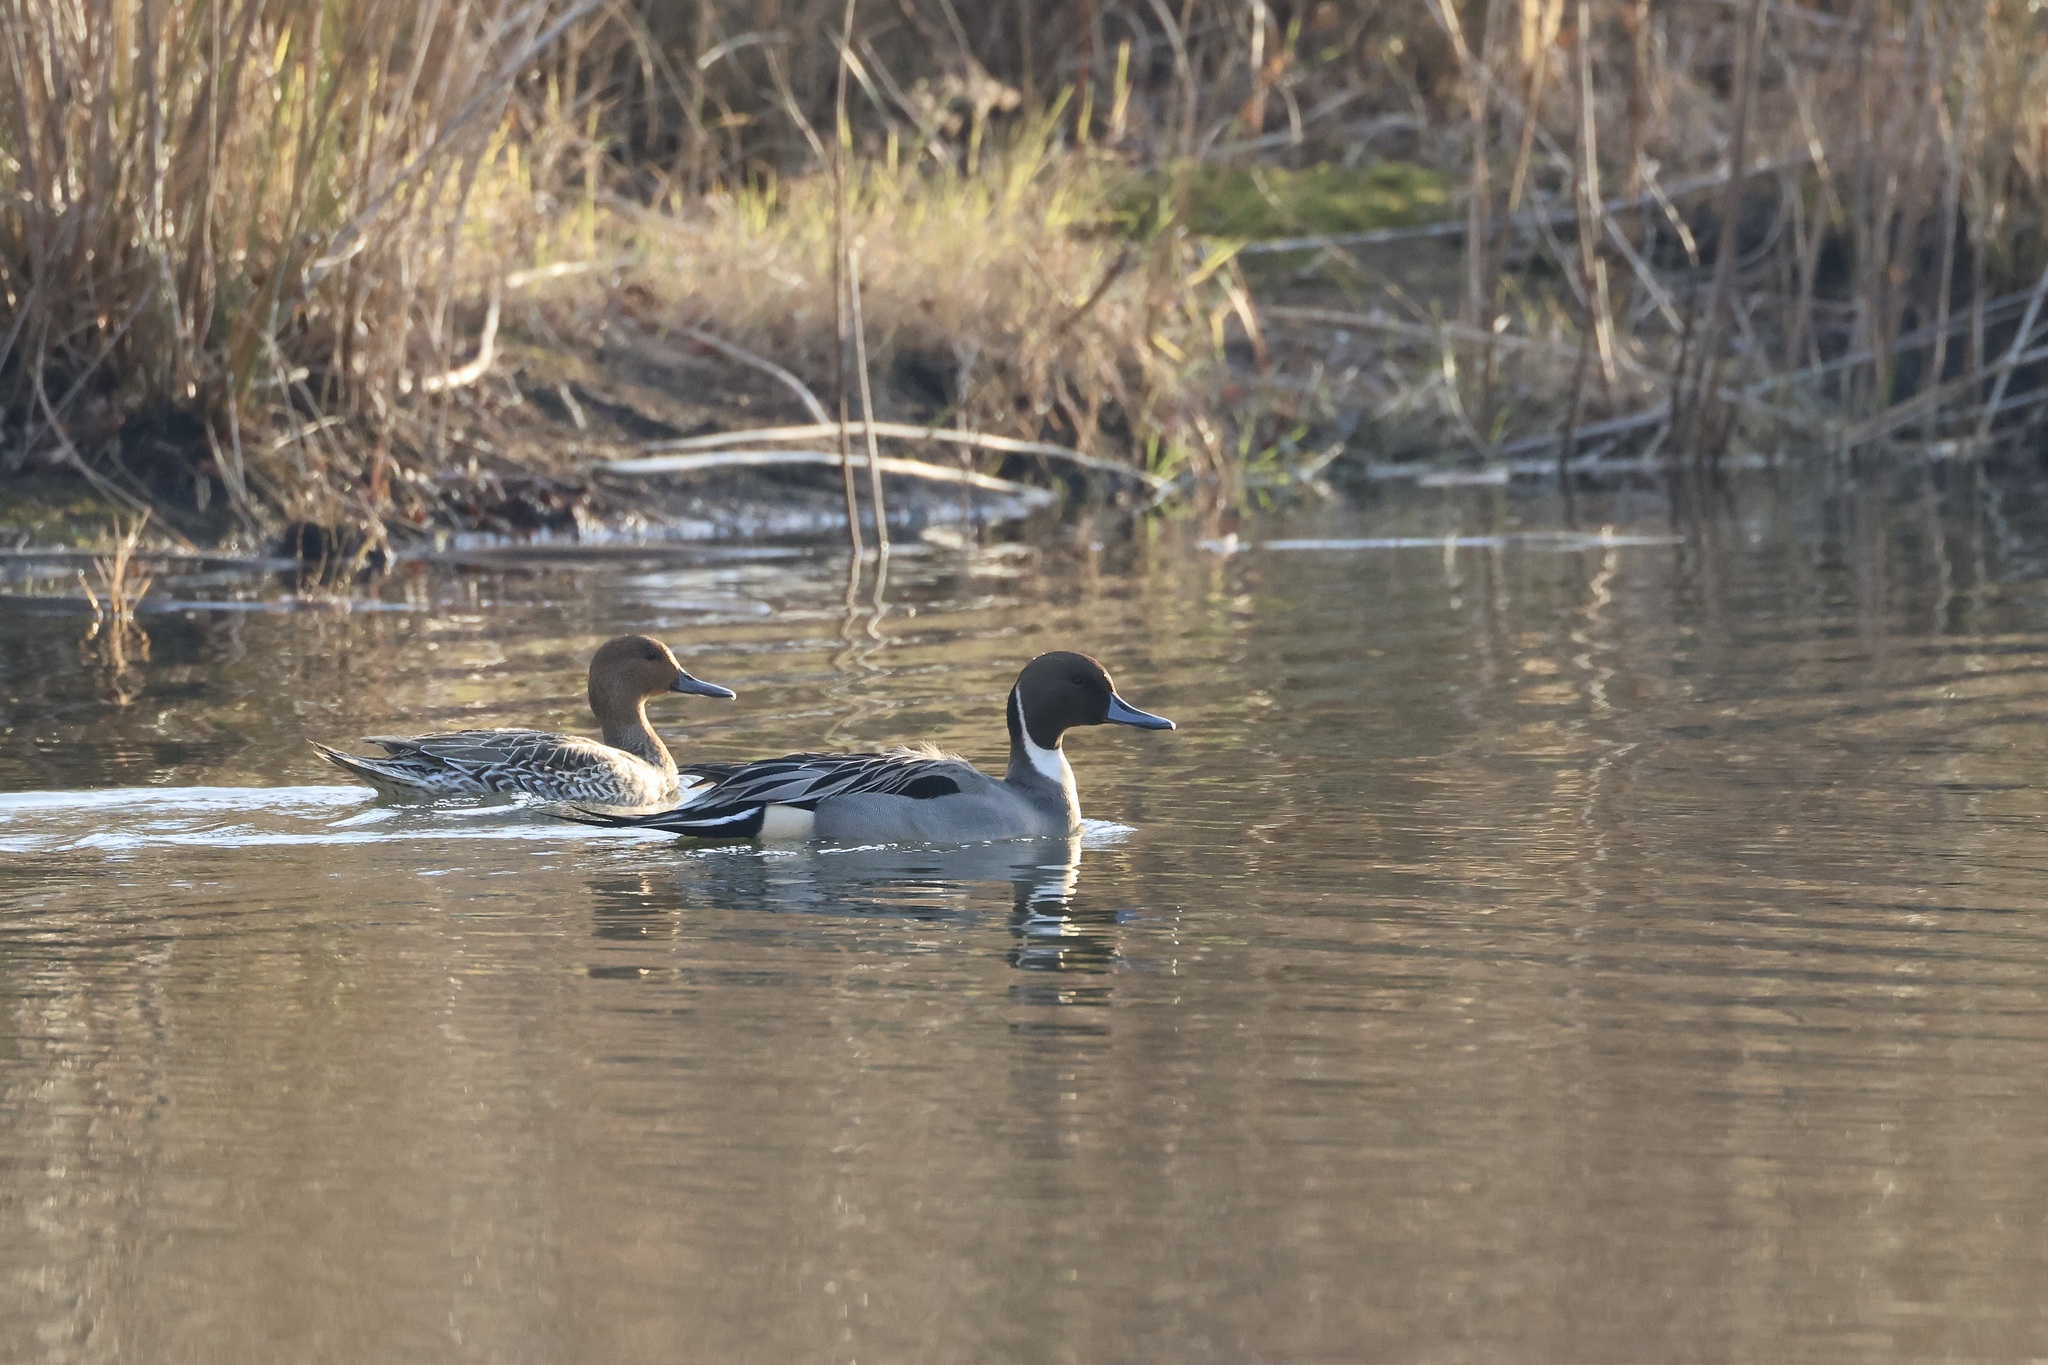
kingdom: Animalia
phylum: Chordata
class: Aves
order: Anseriformes
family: Anatidae
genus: Anas
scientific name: Anas acuta
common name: Northern pintail
